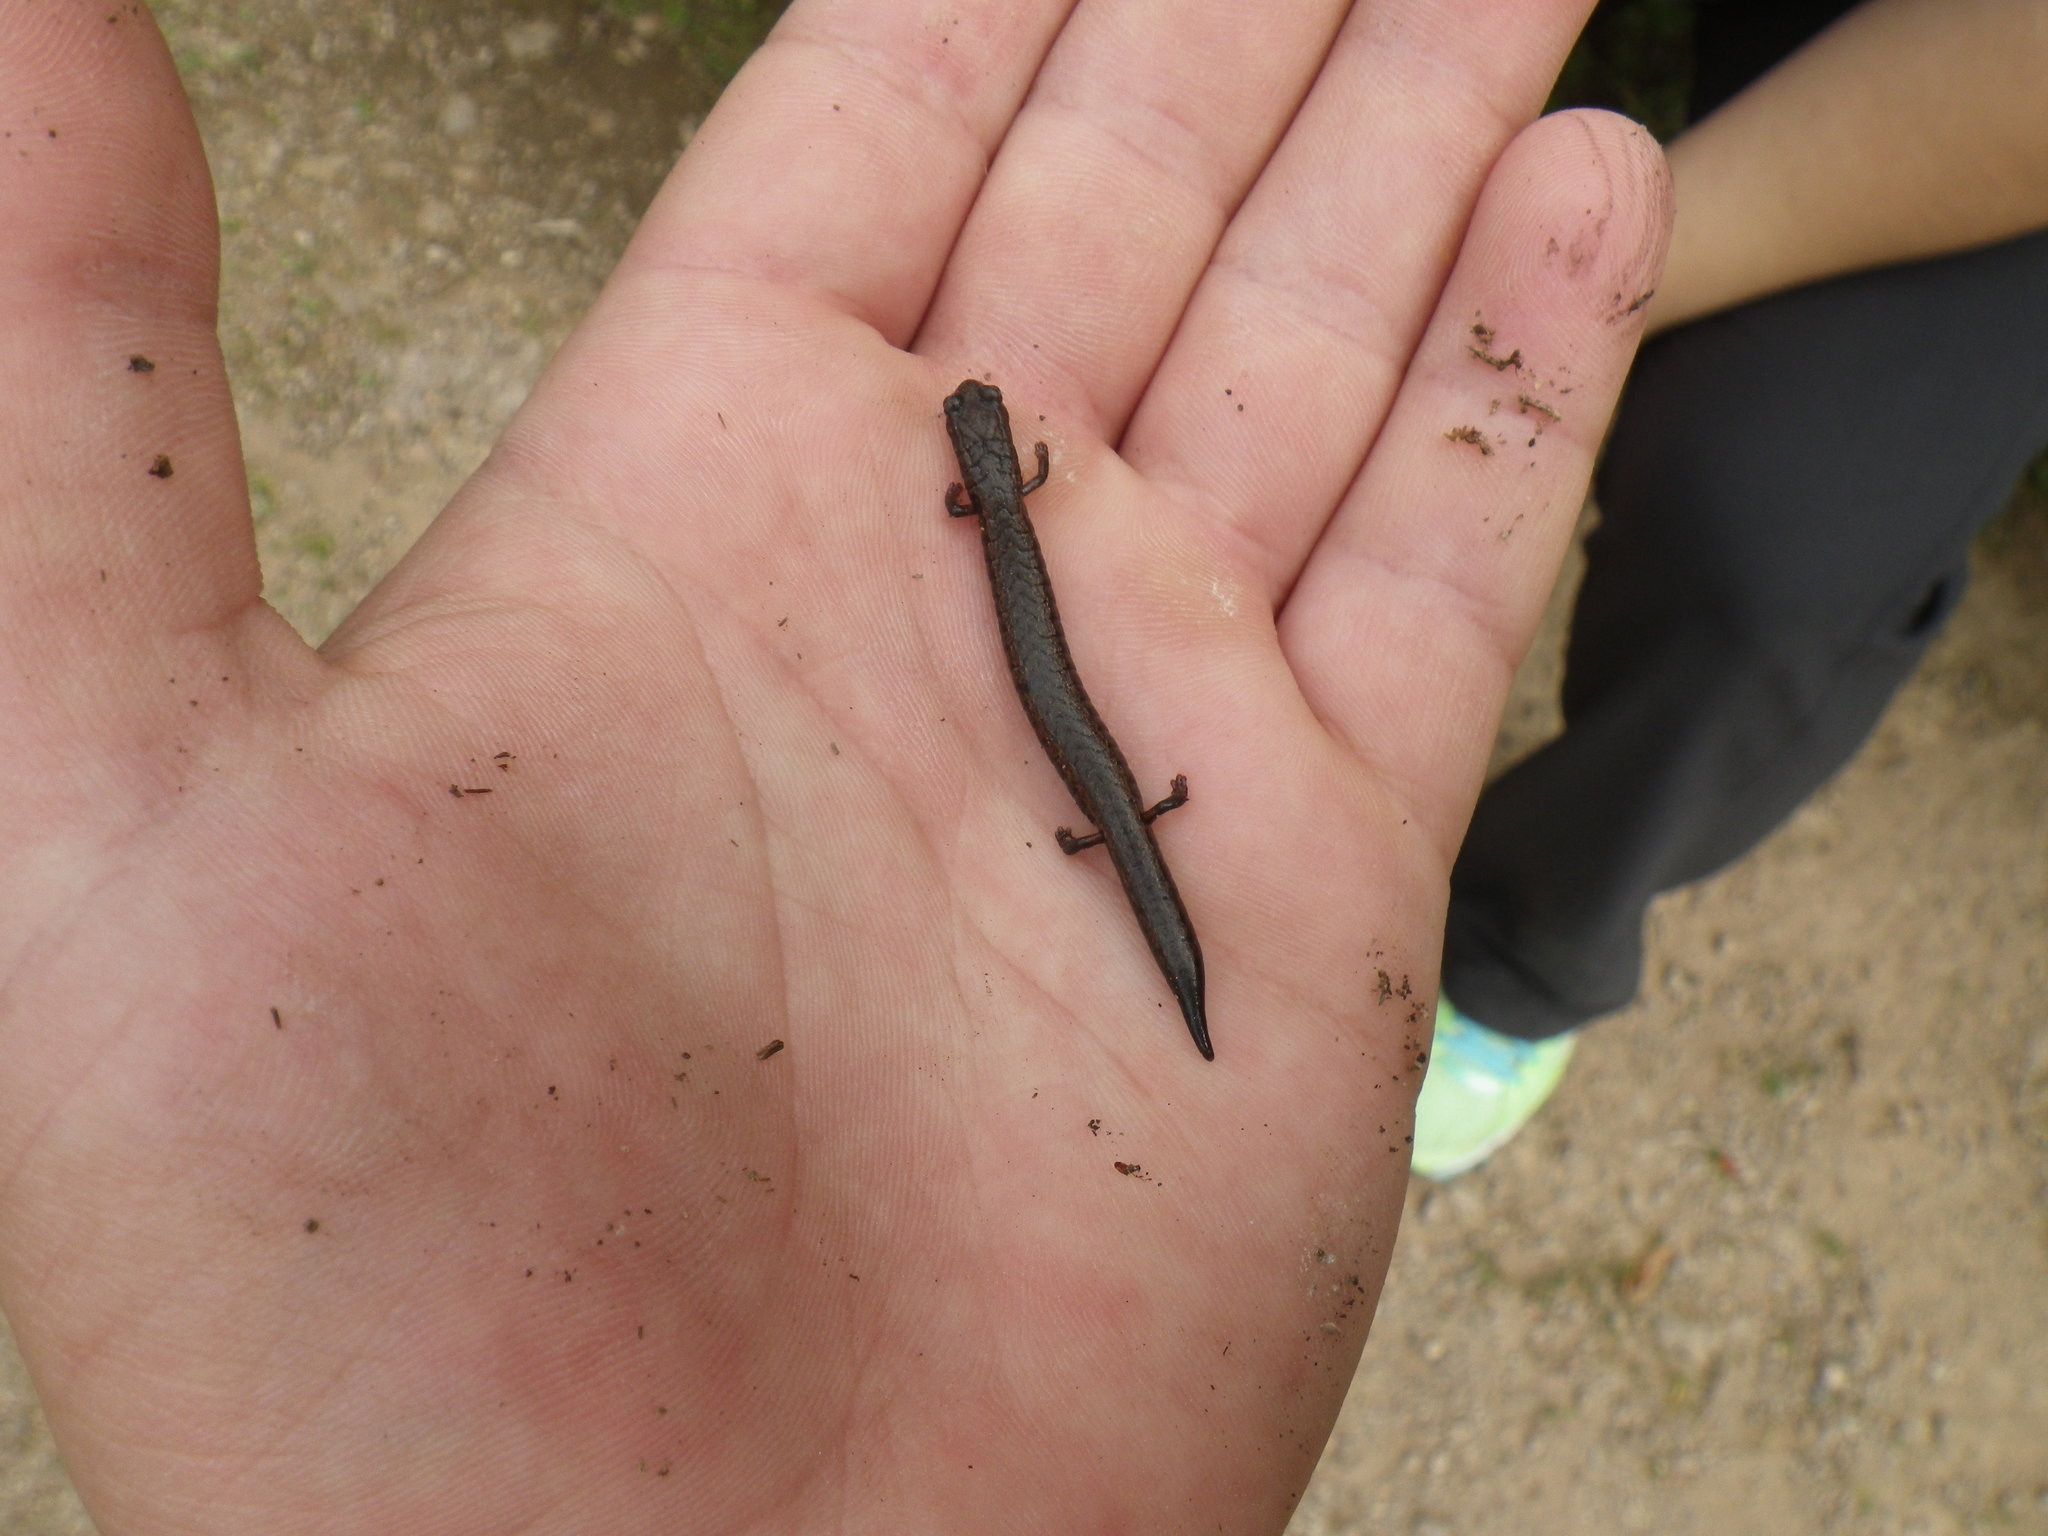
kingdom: Animalia
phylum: Chordata
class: Amphibia
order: Caudata
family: Plethodontidae
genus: Batrachoseps
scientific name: Batrachoseps attenuatus
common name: California slender salamander
